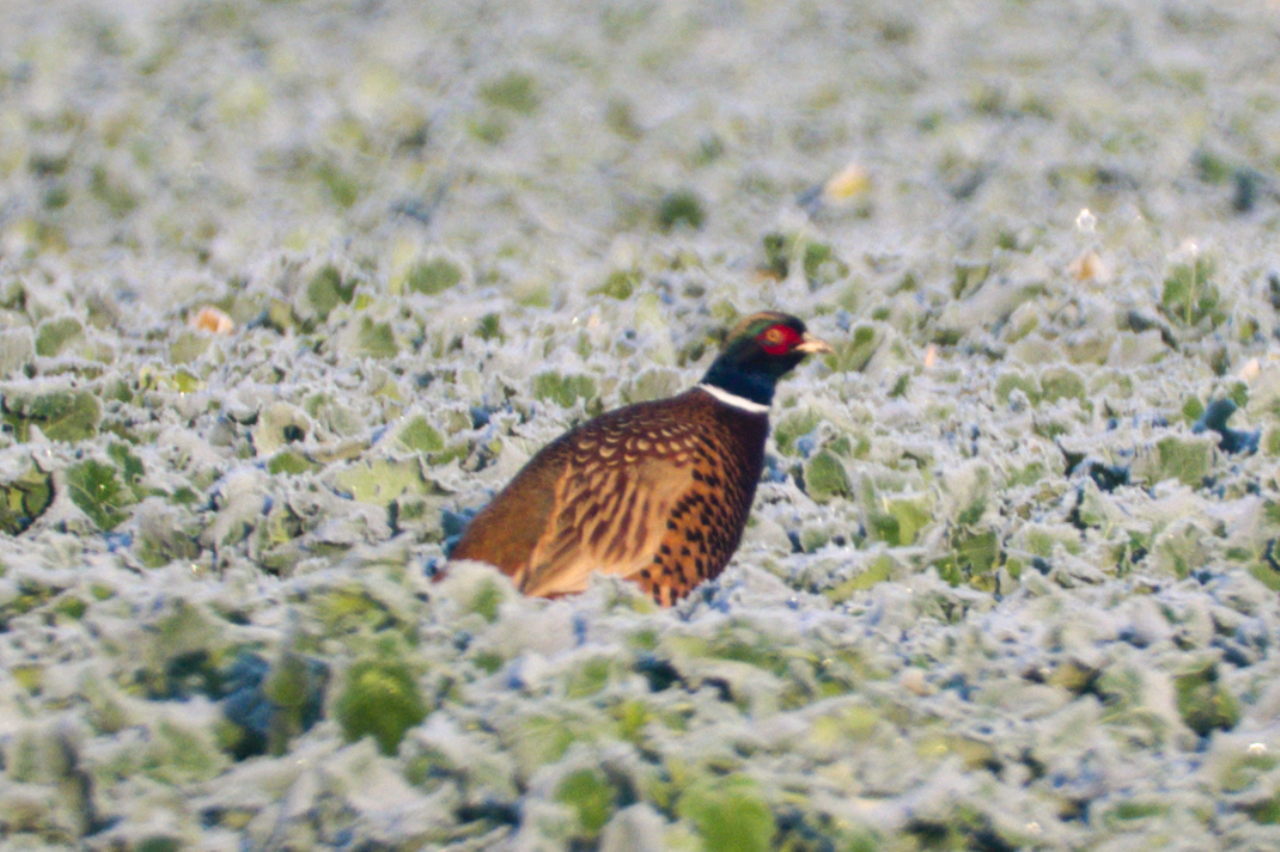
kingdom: Animalia
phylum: Chordata
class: Aves
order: Galliformes
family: Phasianidae
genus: Phasianus
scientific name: Phasianus colchicus
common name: Common pheasant
